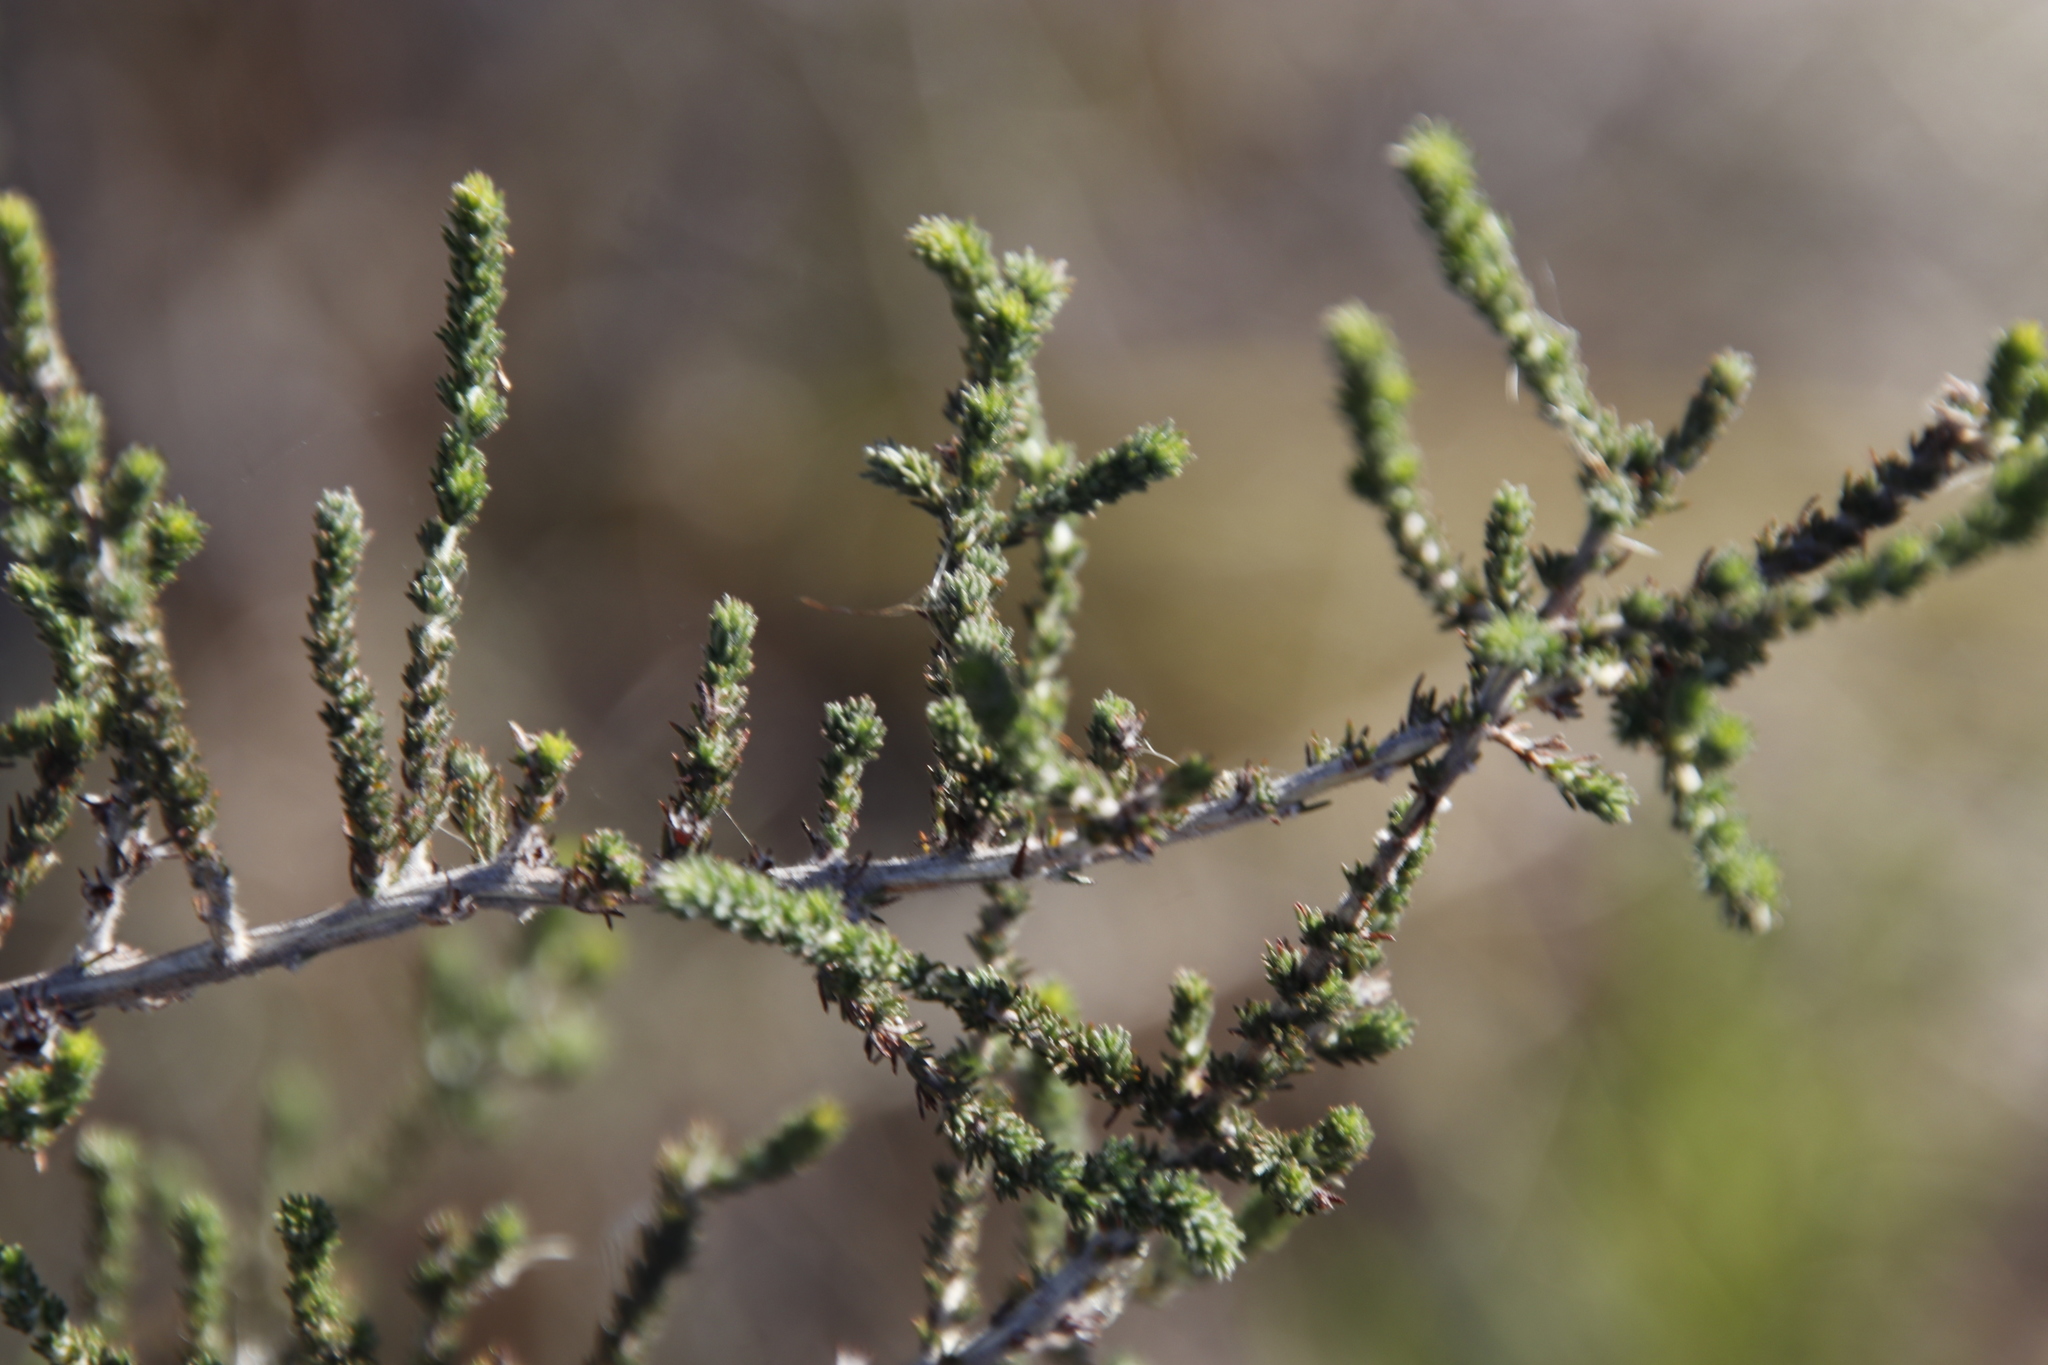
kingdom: Plantae
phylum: Tracheophyta
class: Magnoliopsida
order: Fabales
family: Fabaceae
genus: Aspalathus
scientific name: Aspalathus hispida
